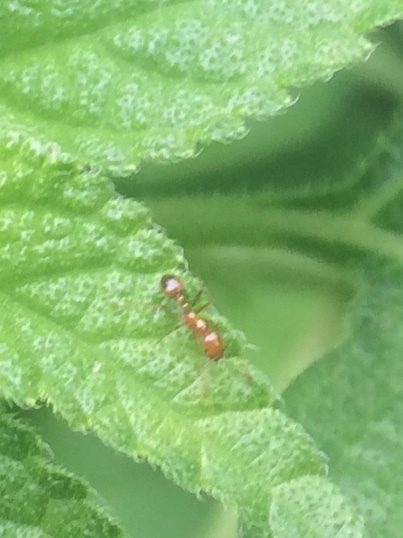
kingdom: Animalia
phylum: Arthropoda
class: Insecta
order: Hymenoptera
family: Formicidae
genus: Solenopsis
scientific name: Solenopsis geminata
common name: Tropical fire ant
